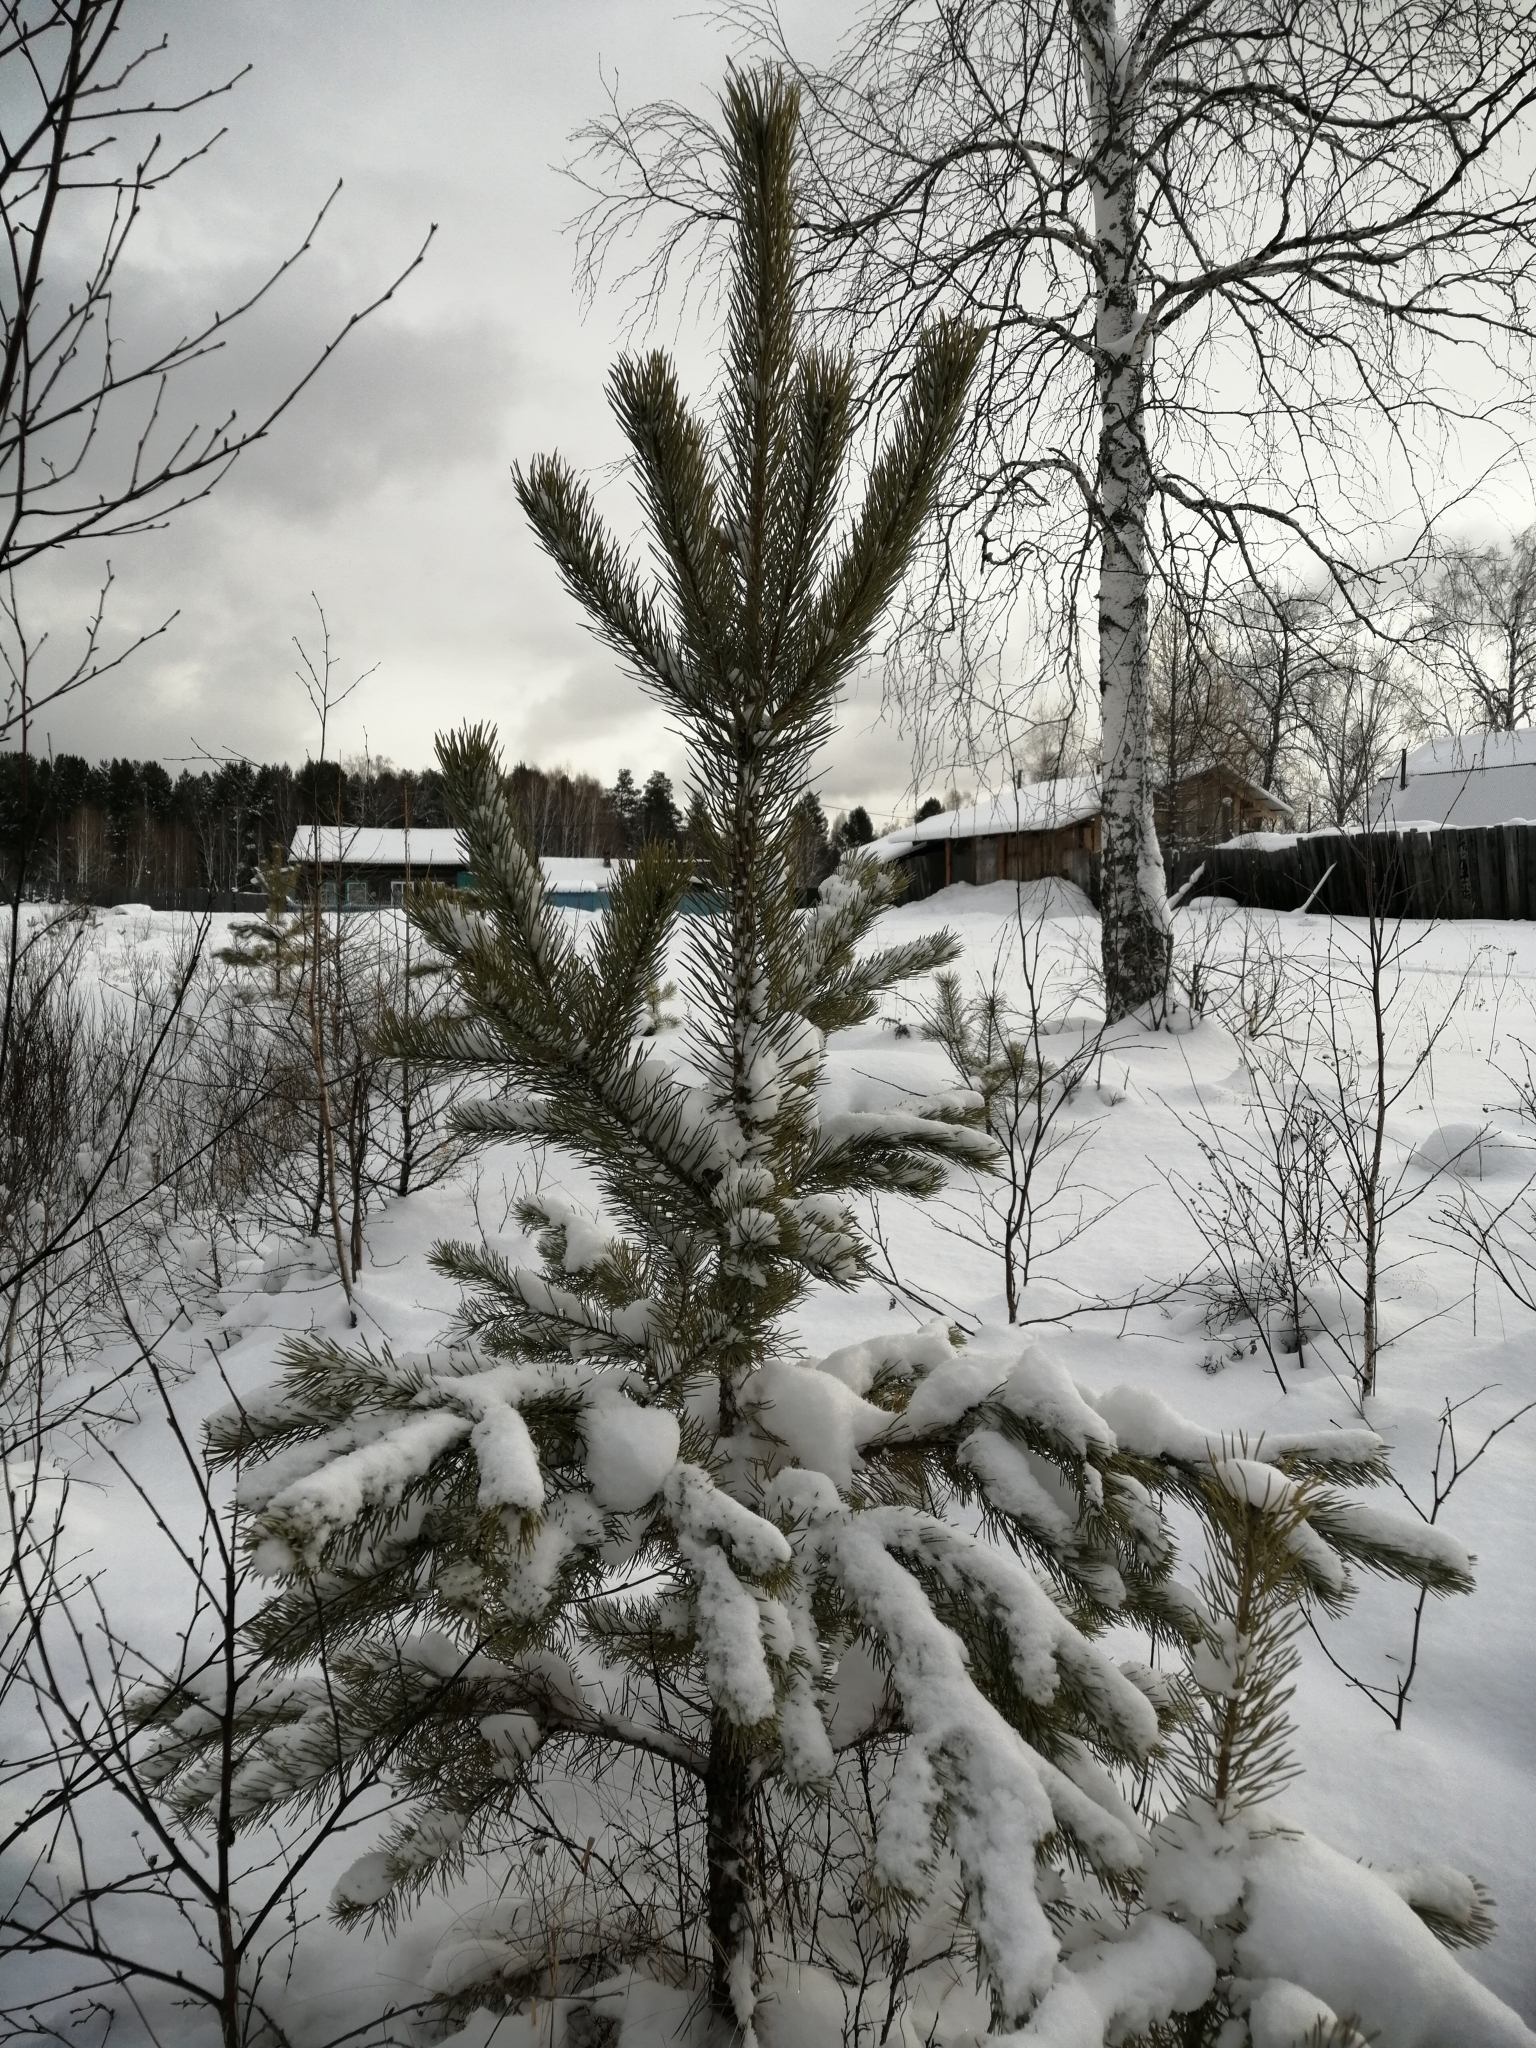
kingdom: Plantae
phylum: Tracheophyta
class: Pinopsida
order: Pinales
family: Pinaceae
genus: Pinus
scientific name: Pinus sylvestris
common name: Scots pine
